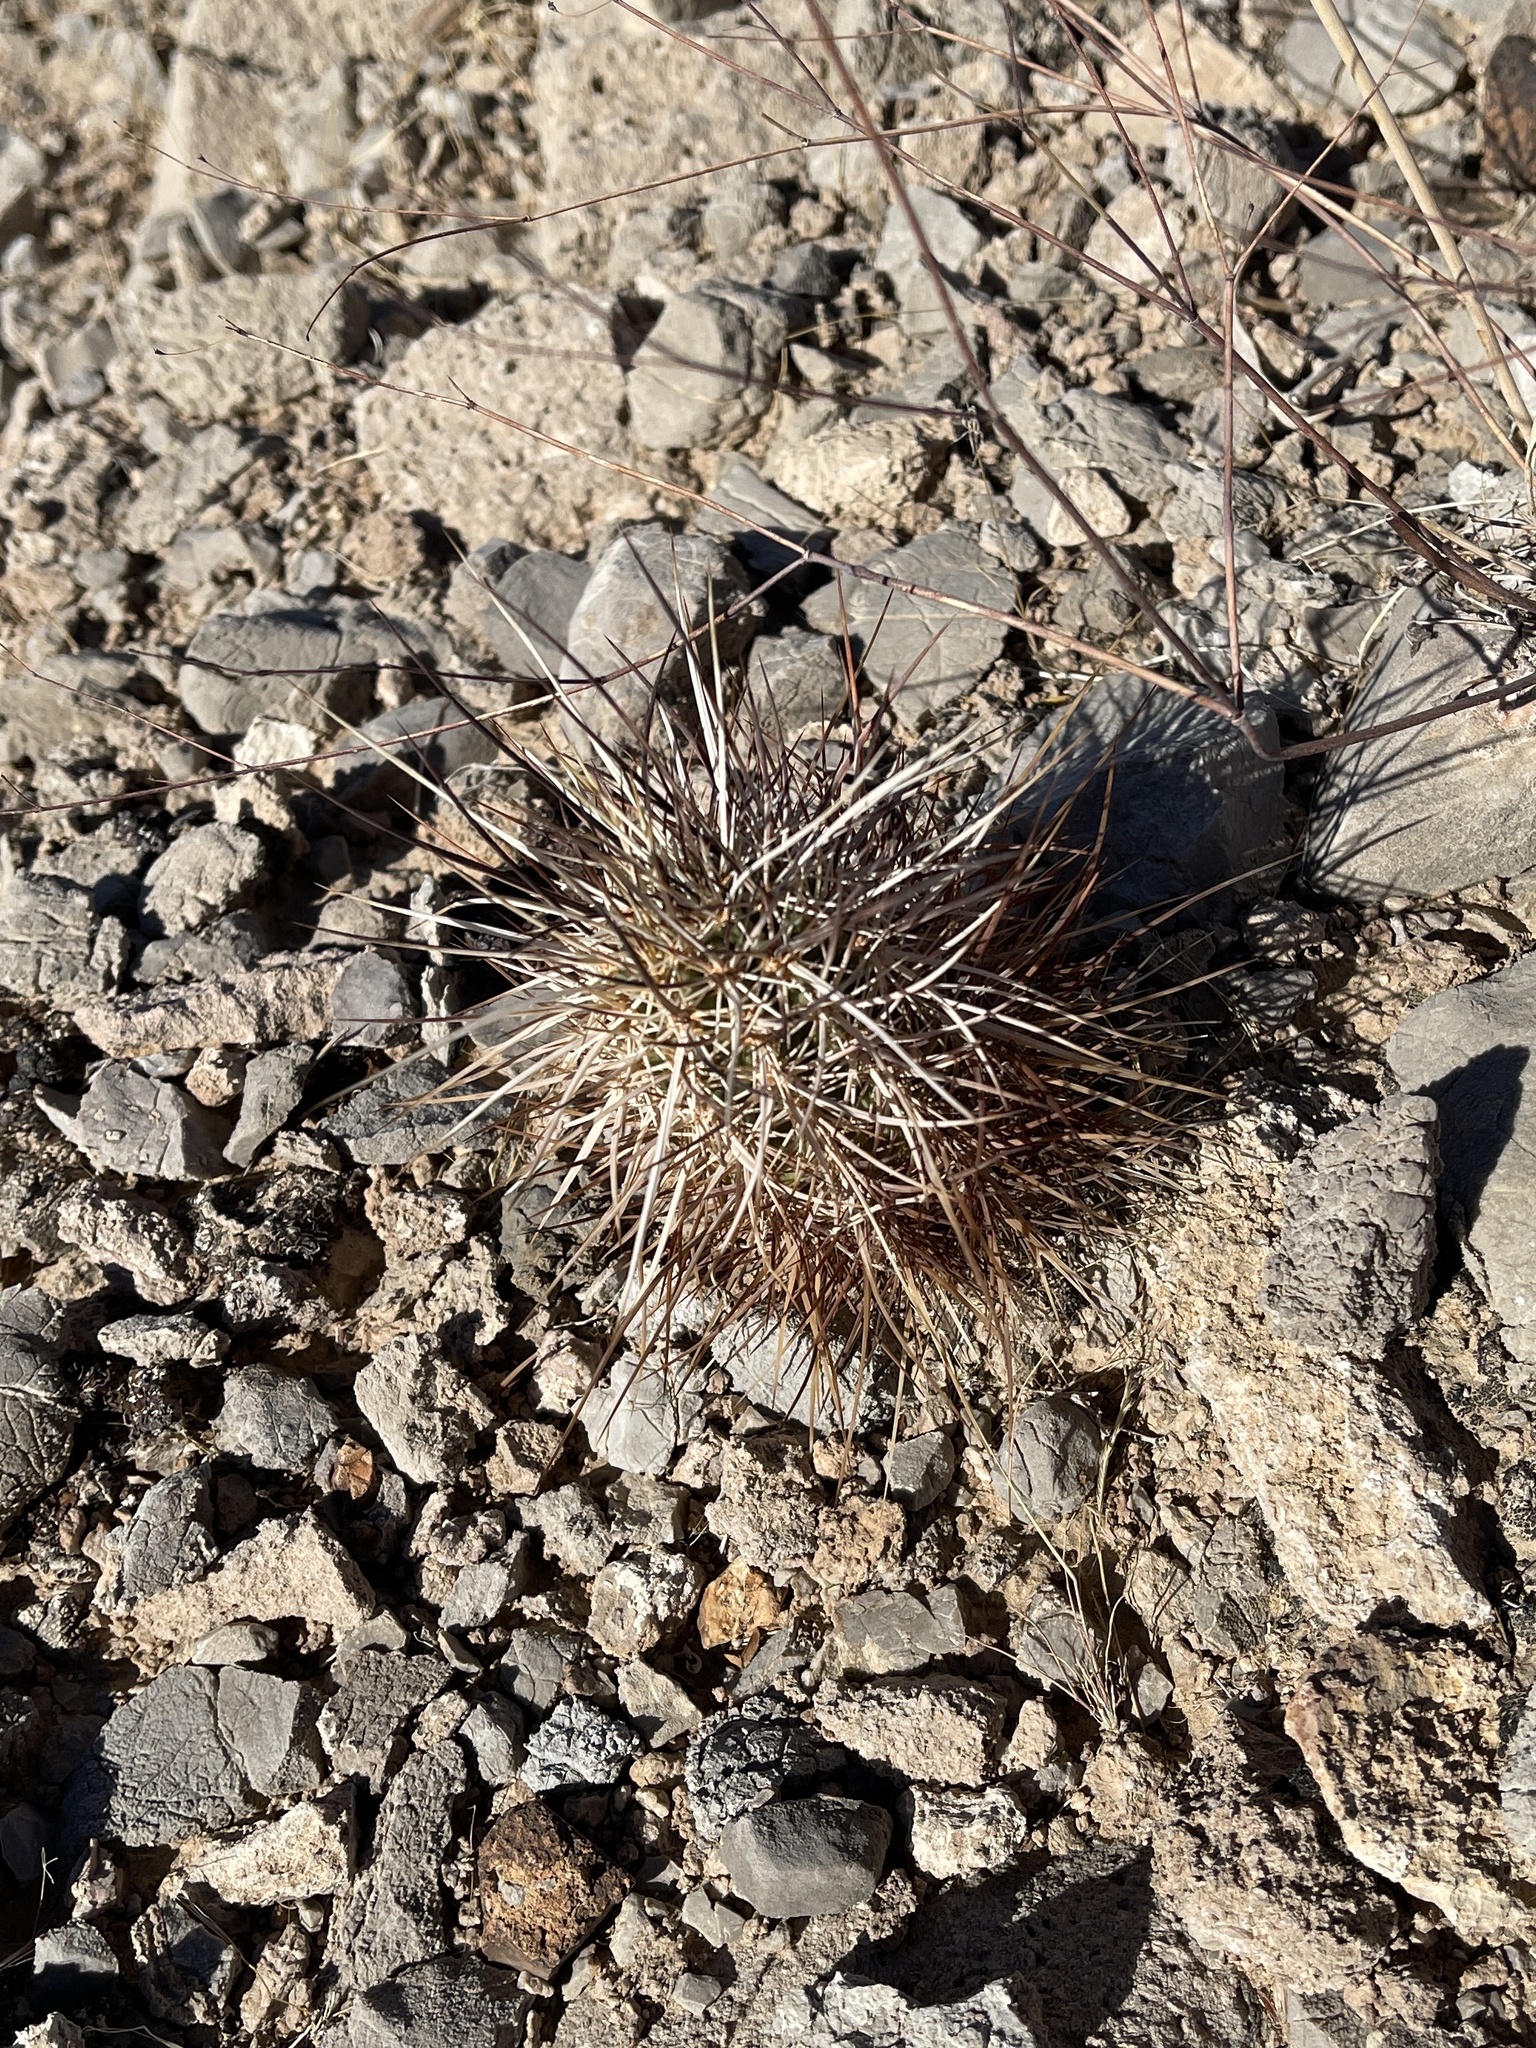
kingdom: Plantae
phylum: Tracheophyta
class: Magnoliopsida
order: Caryophyllales
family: Cactaceae
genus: Echinocereus
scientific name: Echinocereus engelmannii
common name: Engelmann's hedgehog cactus
